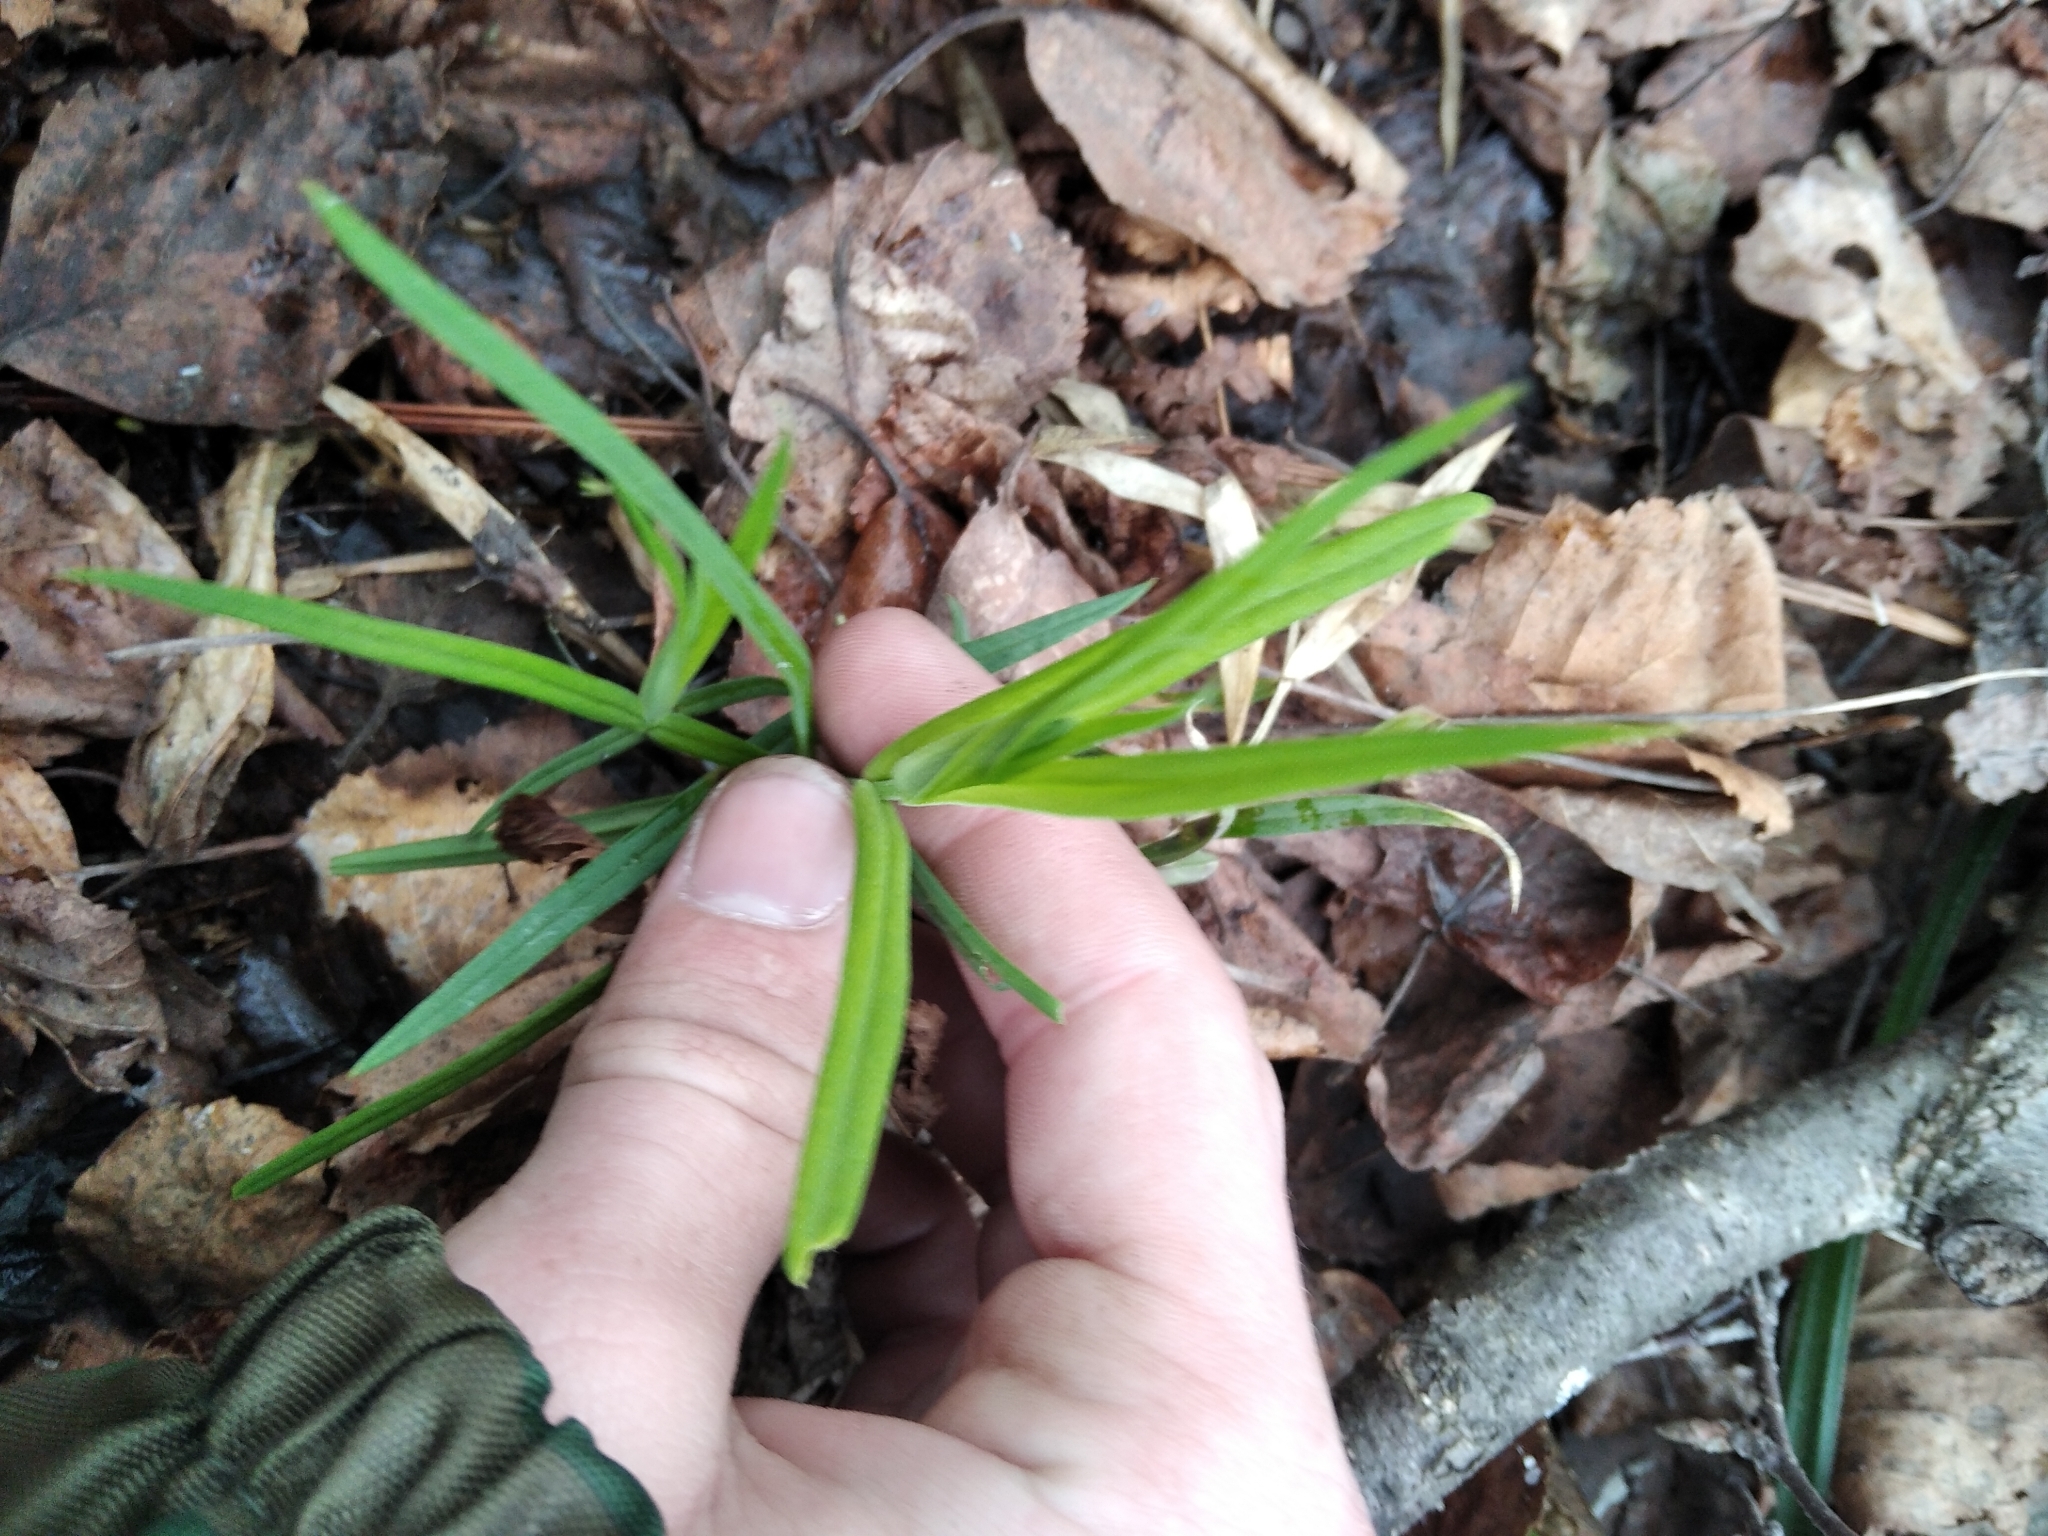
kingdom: Plantae
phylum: Tracheophyta
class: Magnoliopsida
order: Caryophyllales
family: Caryophyllaceae
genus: Rabelera
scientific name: Rabelera holostea
